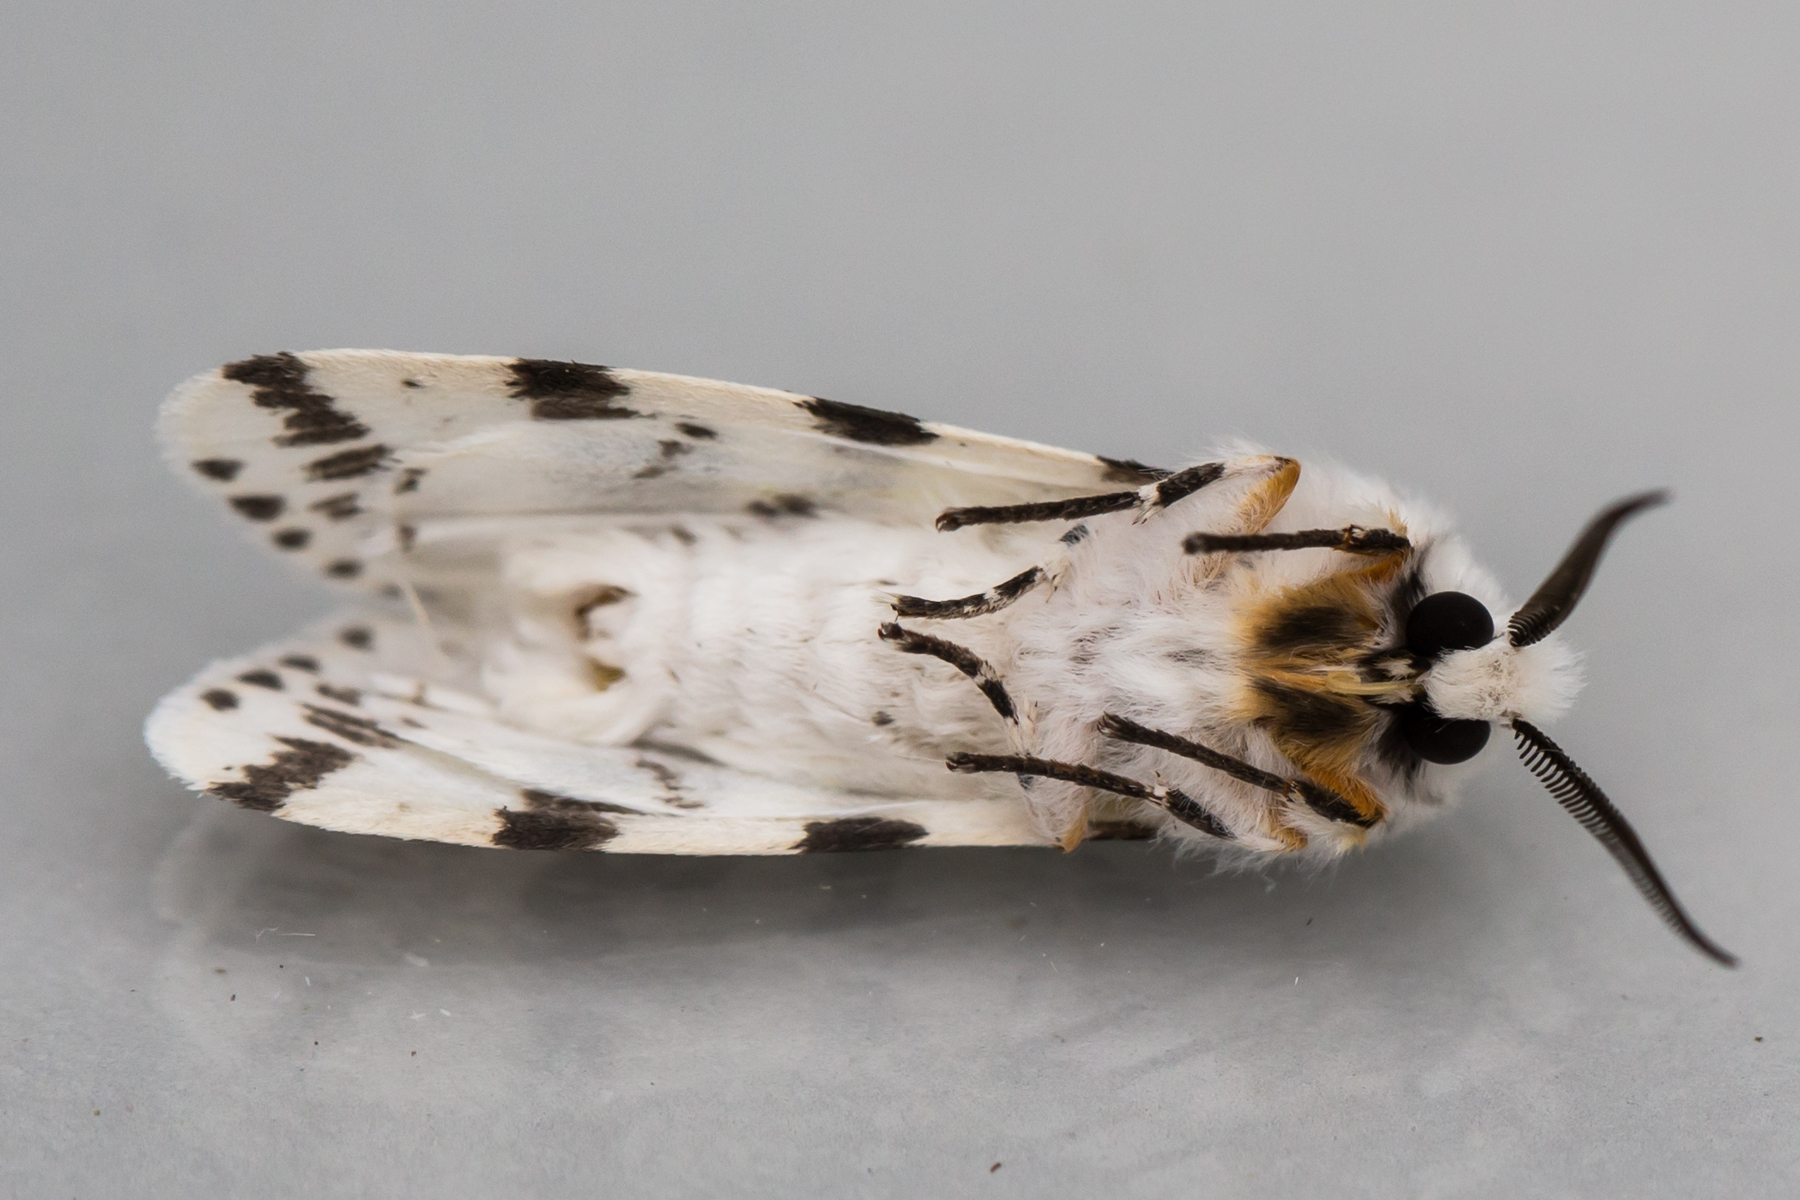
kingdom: Animalia
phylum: Arthropoda
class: Insecta
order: Lepidoptera
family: Erebidae
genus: Hyphantria
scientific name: Hyphantria cunea
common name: American white moth
